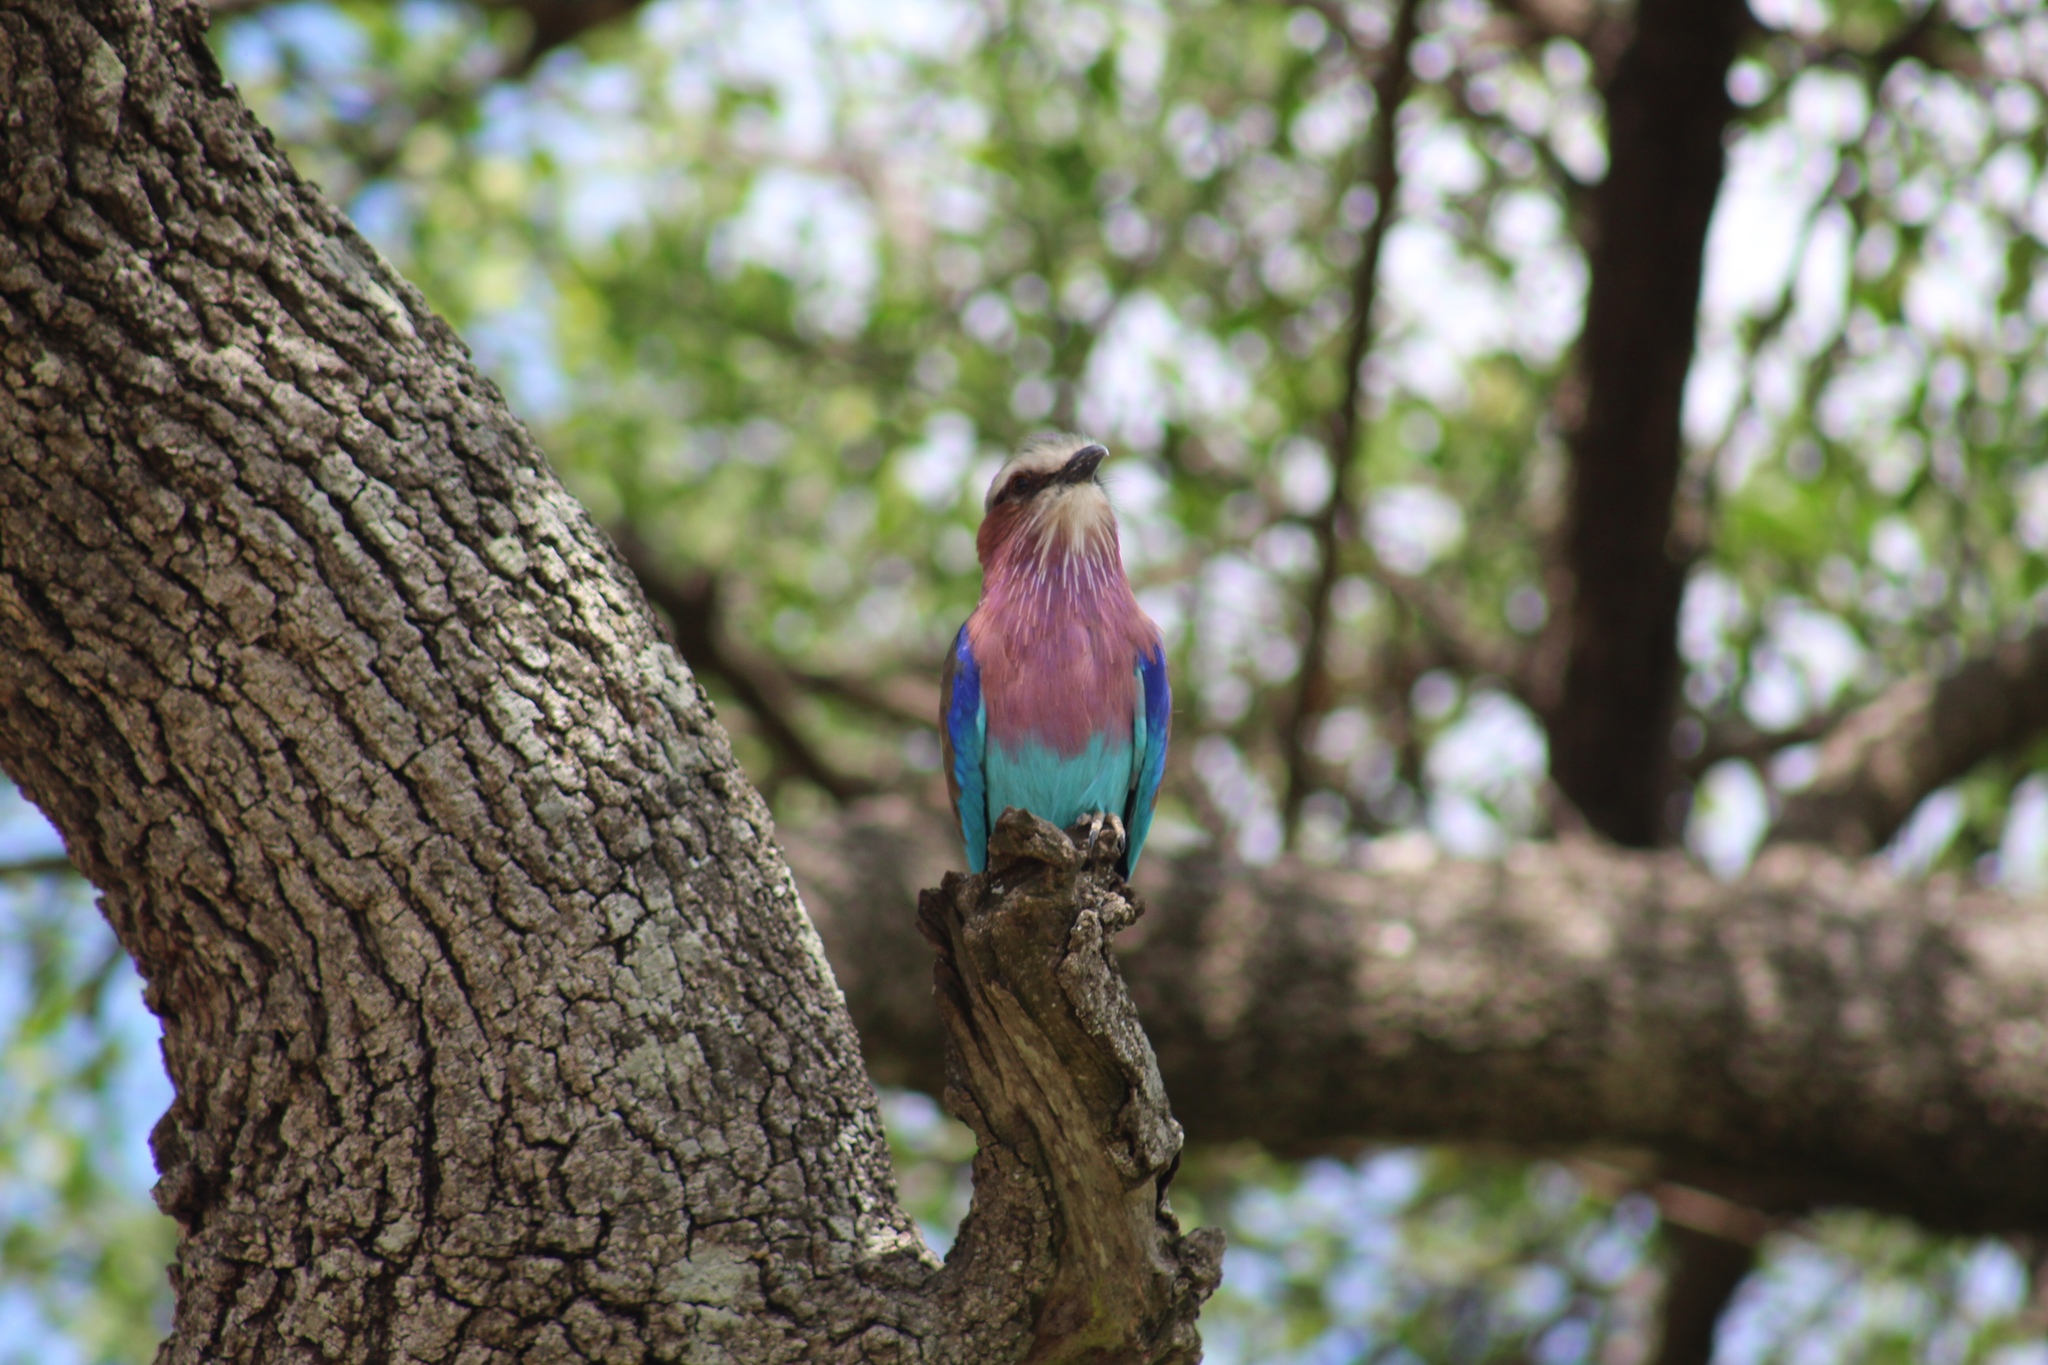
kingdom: Animalia
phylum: Chordata
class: Aves
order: Coraciiformes
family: Coraciidae
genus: Coracias
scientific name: Coracias caudatus
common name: Lilac-breasted roller
